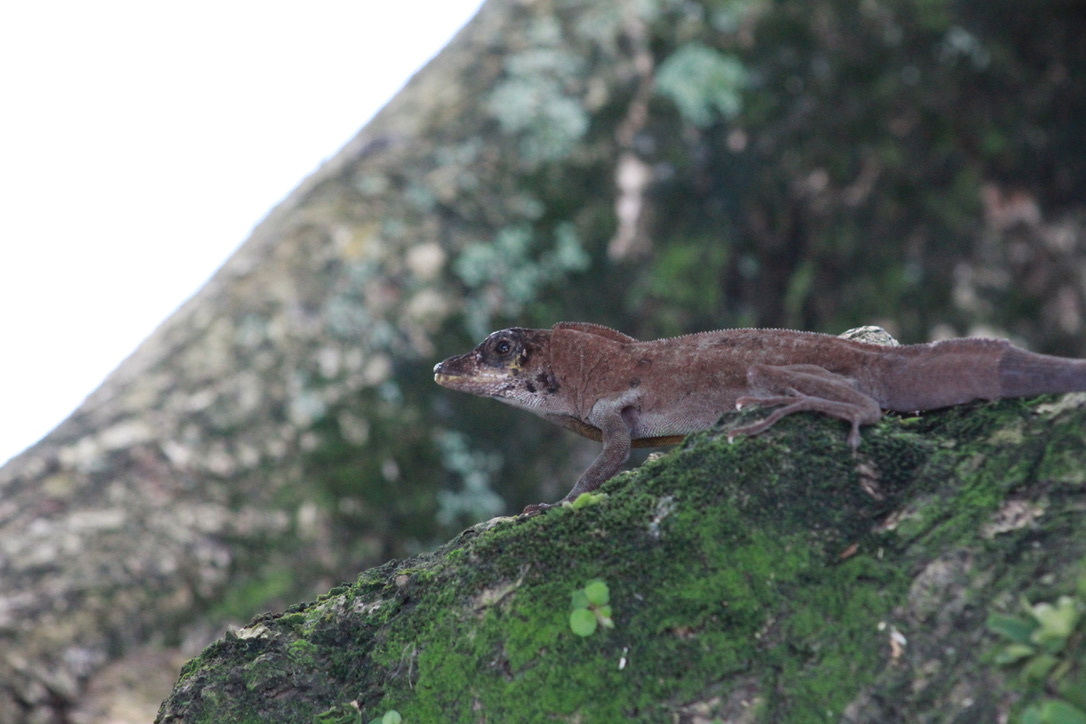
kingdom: Animalia
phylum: Chordata
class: Squamata
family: Dactyloidae
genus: Anolis
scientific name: Anolis richardii
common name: Grenada tree anole
